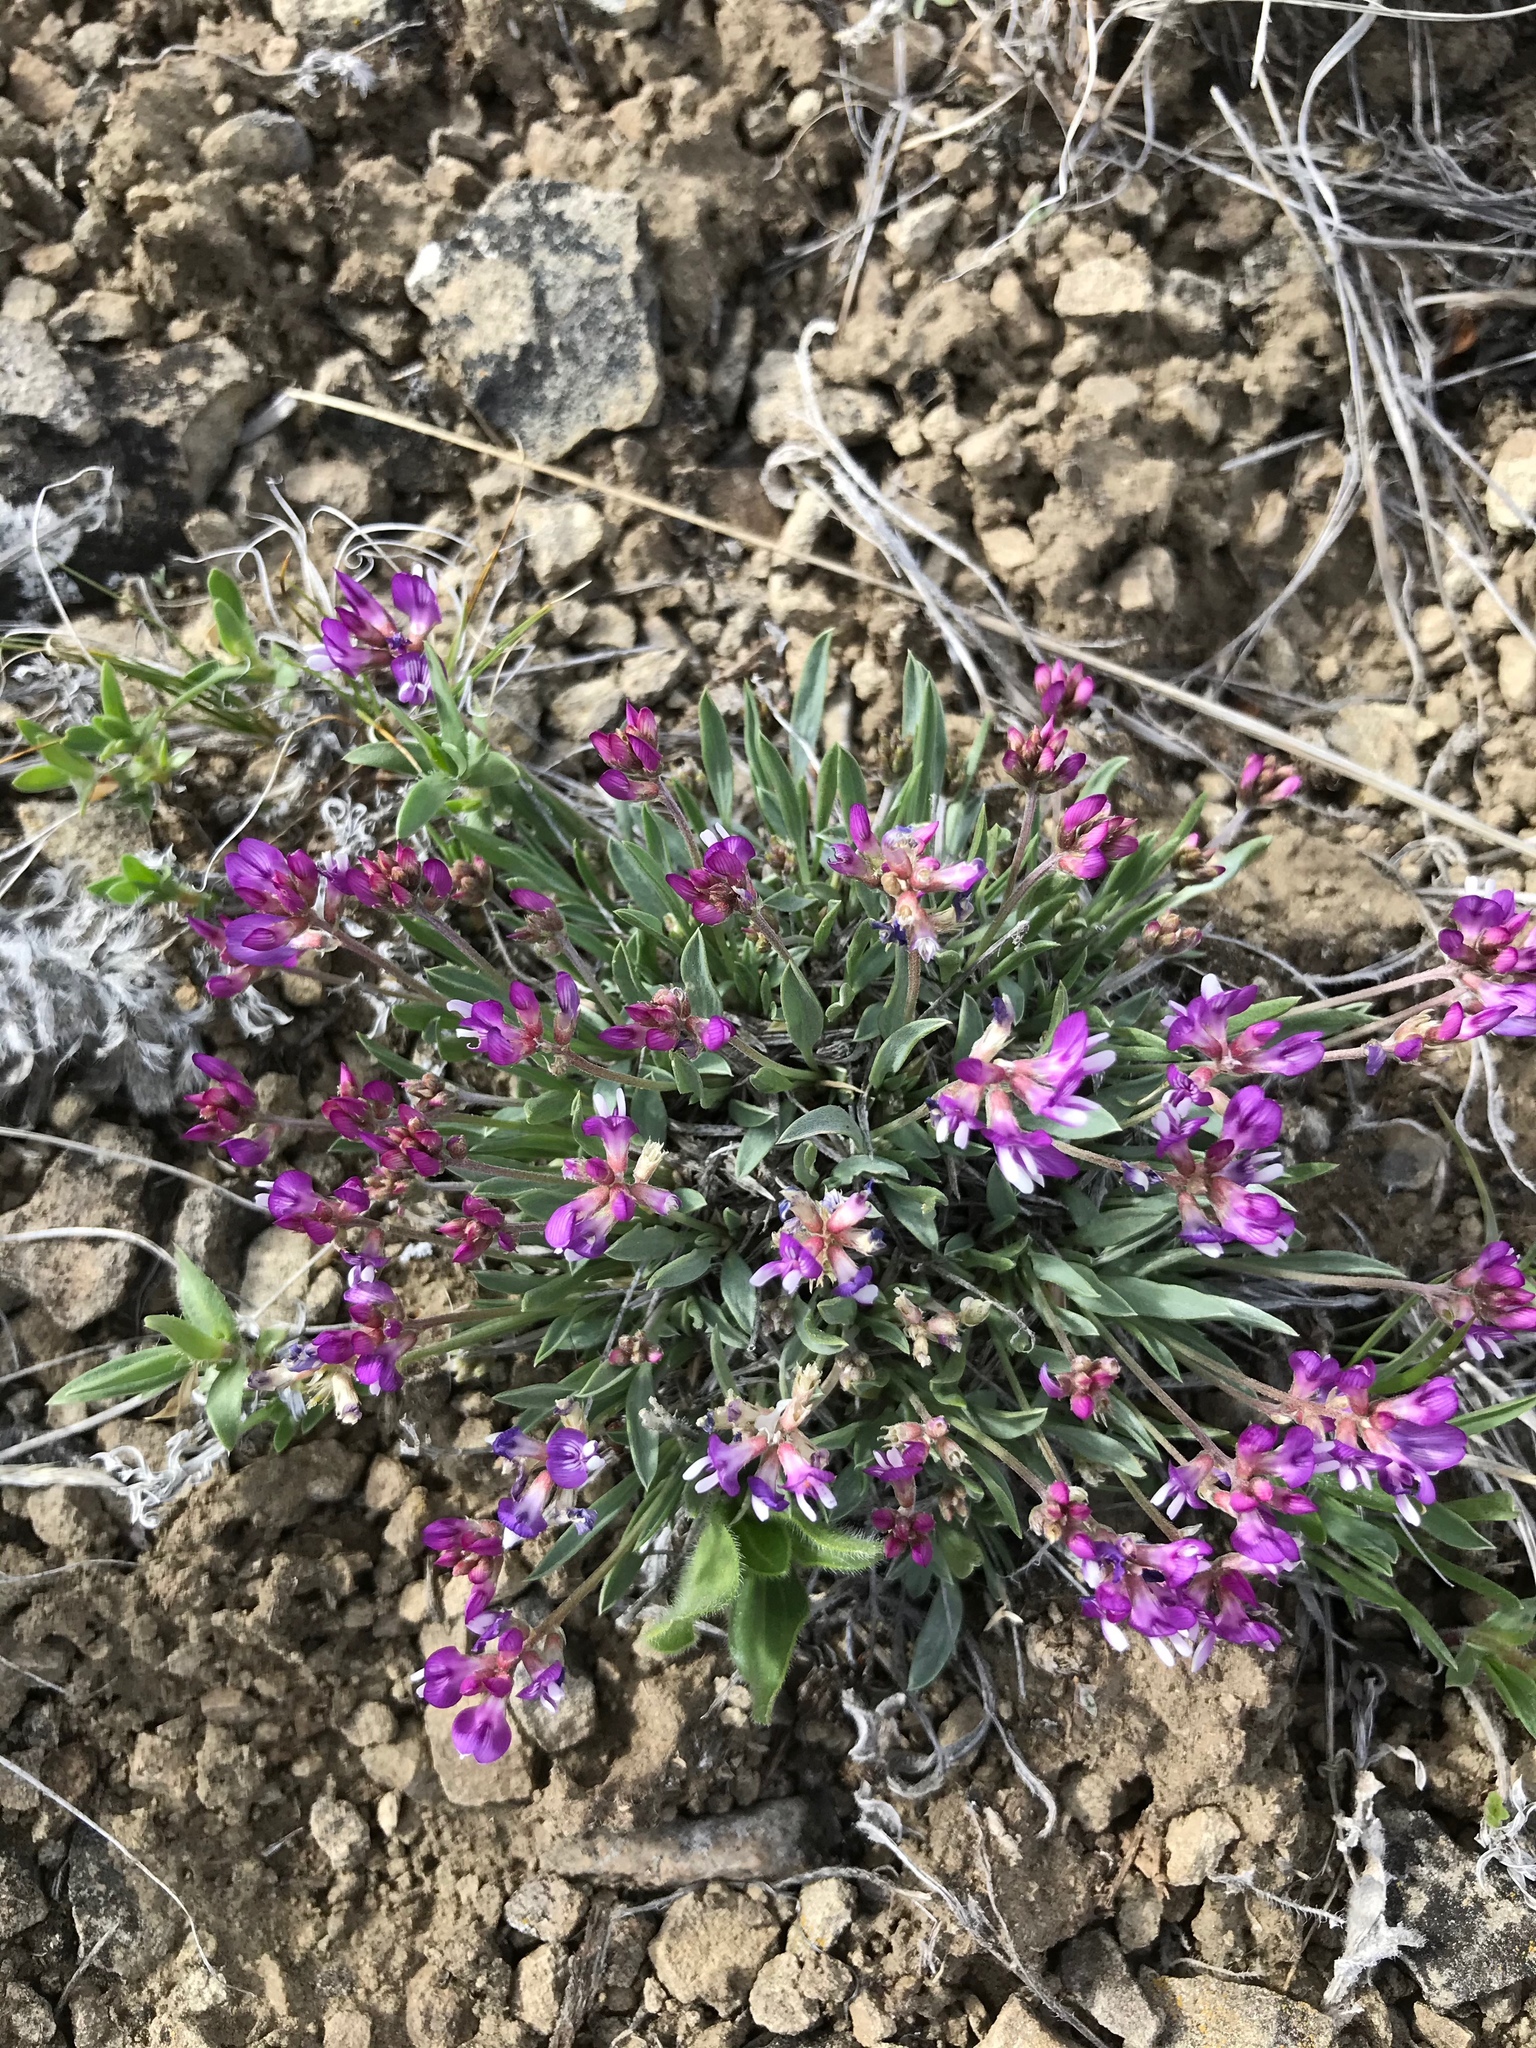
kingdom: Plantae
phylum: Tracheophyta
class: Magnoliopsida
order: Fabales
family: Fabaceae
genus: Astragalus
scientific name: Astragalus spatulatus
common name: Draba milk-vetch
